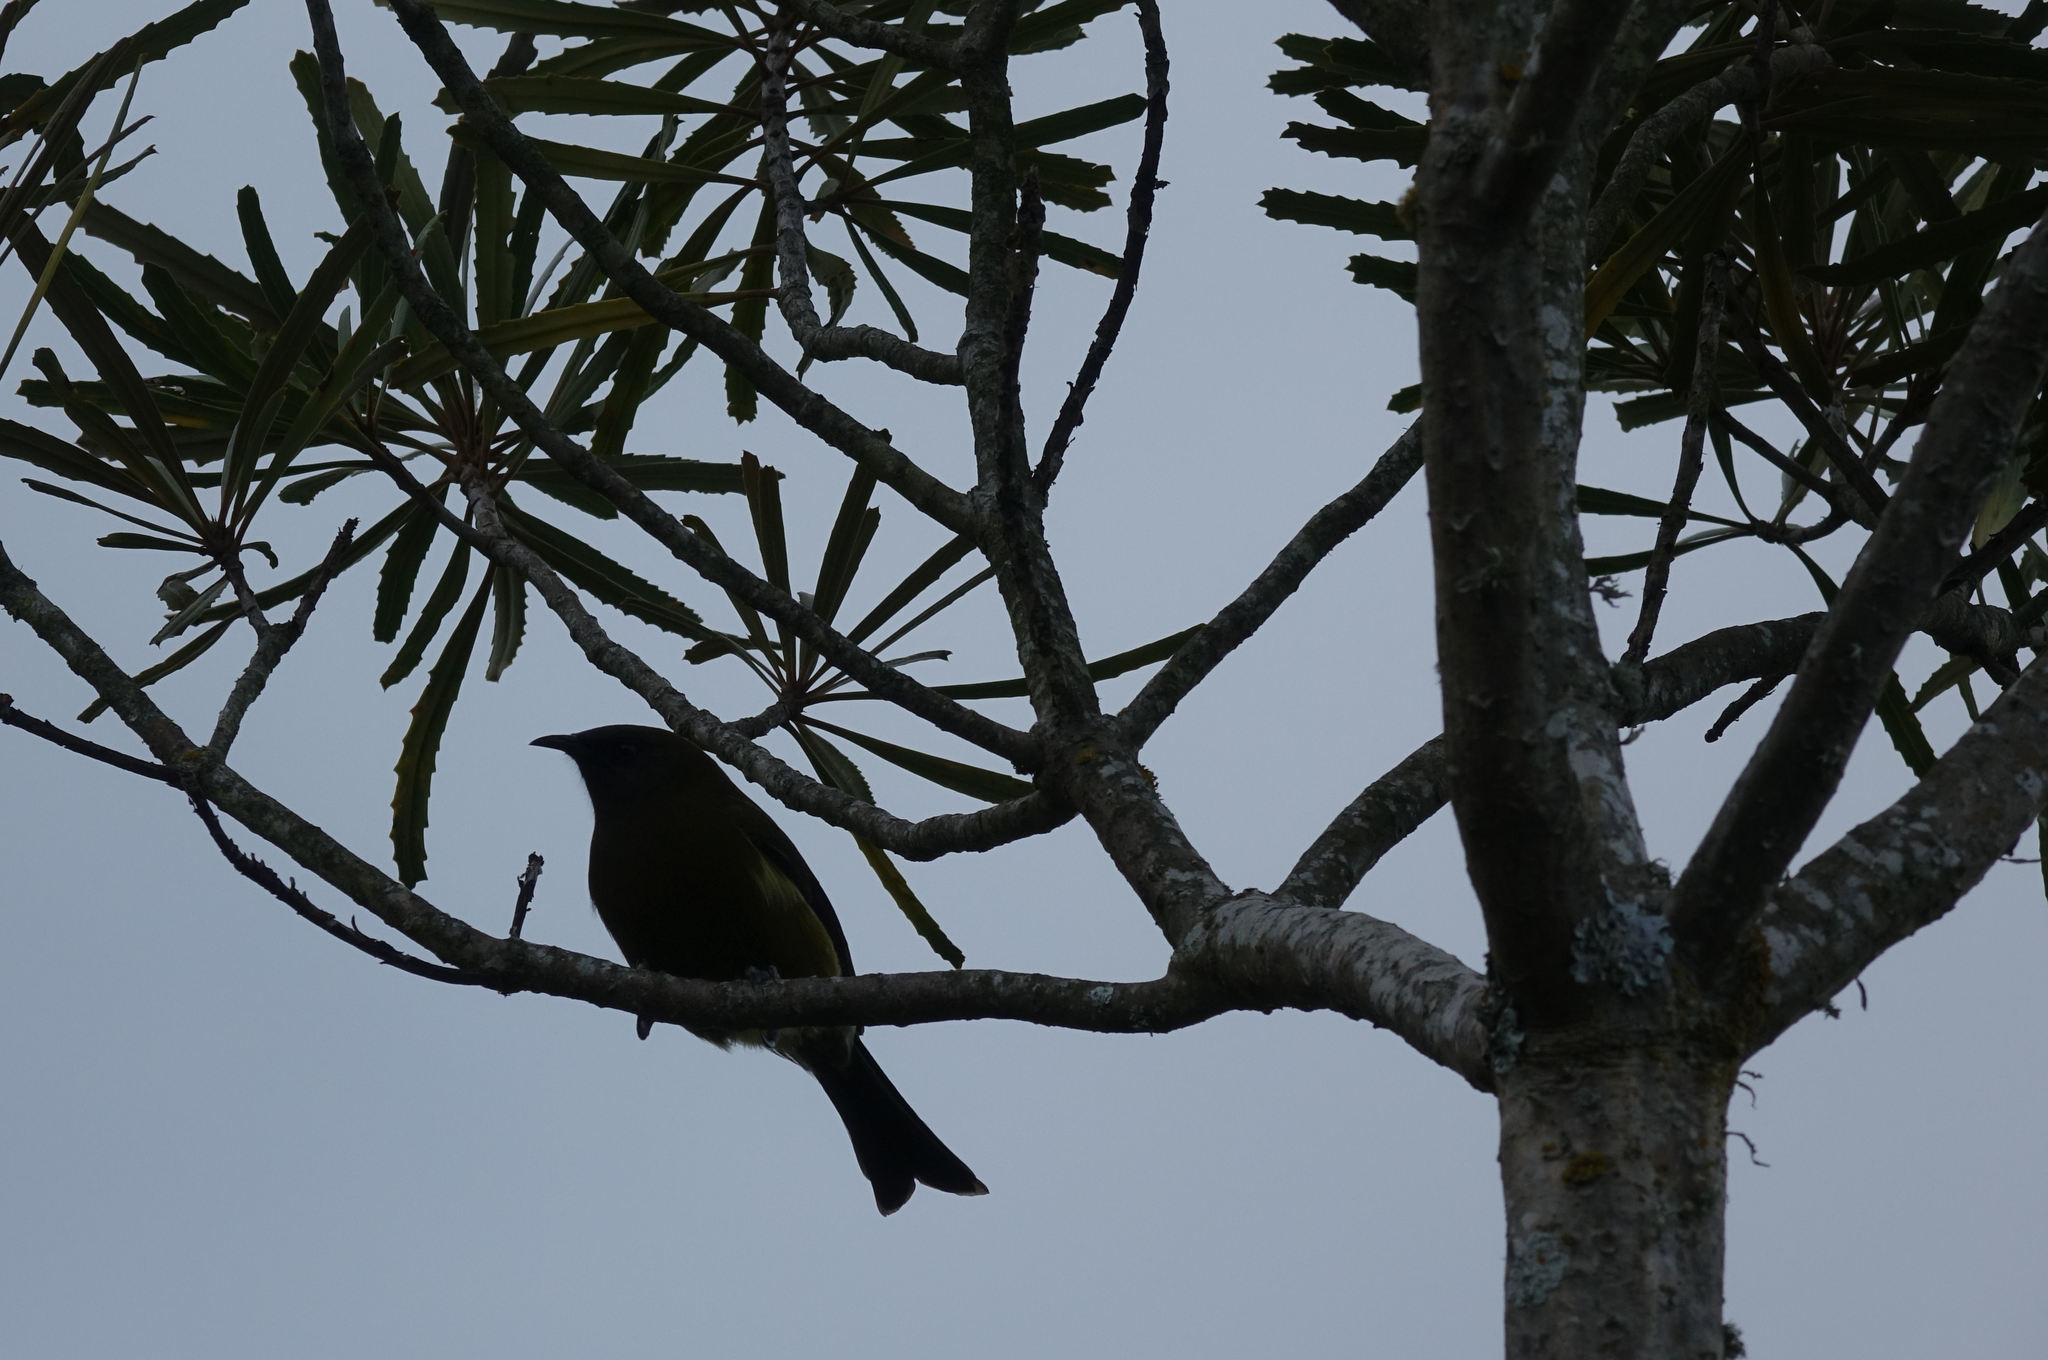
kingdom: Animalia
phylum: Chordata
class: Aves
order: Passeriformes
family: Meliphagidae
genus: Anthornis
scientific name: Anthornis melanura
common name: New zealand bellbird
